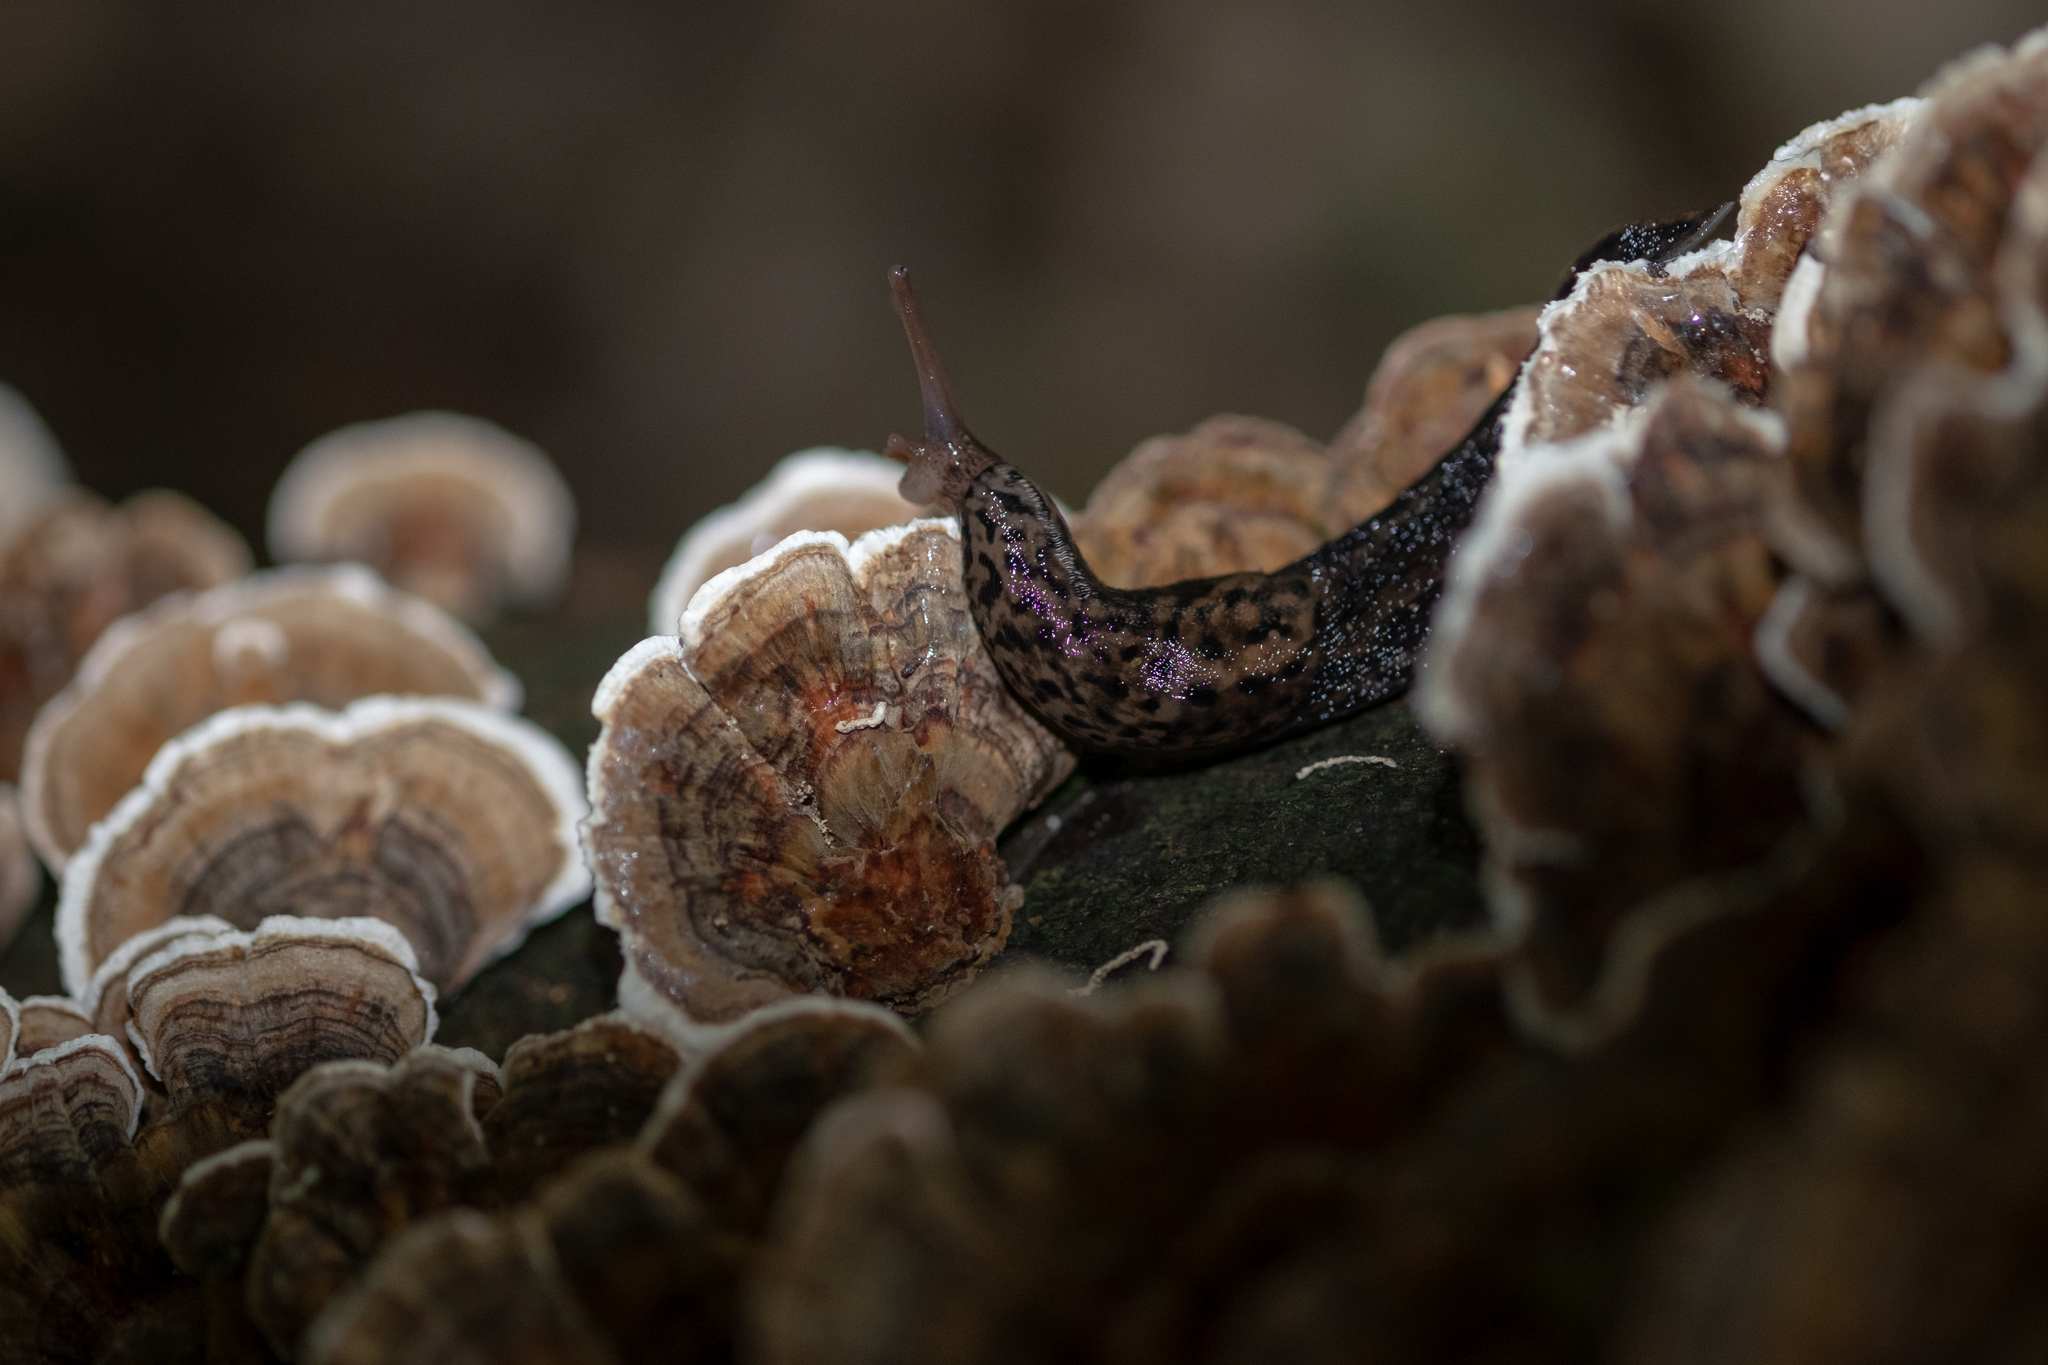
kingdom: Animalia
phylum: Mollusca
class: Gastropoda
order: Stylommatophora
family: Limacidae
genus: Limax
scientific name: Limax maximus
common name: Great grey slug
